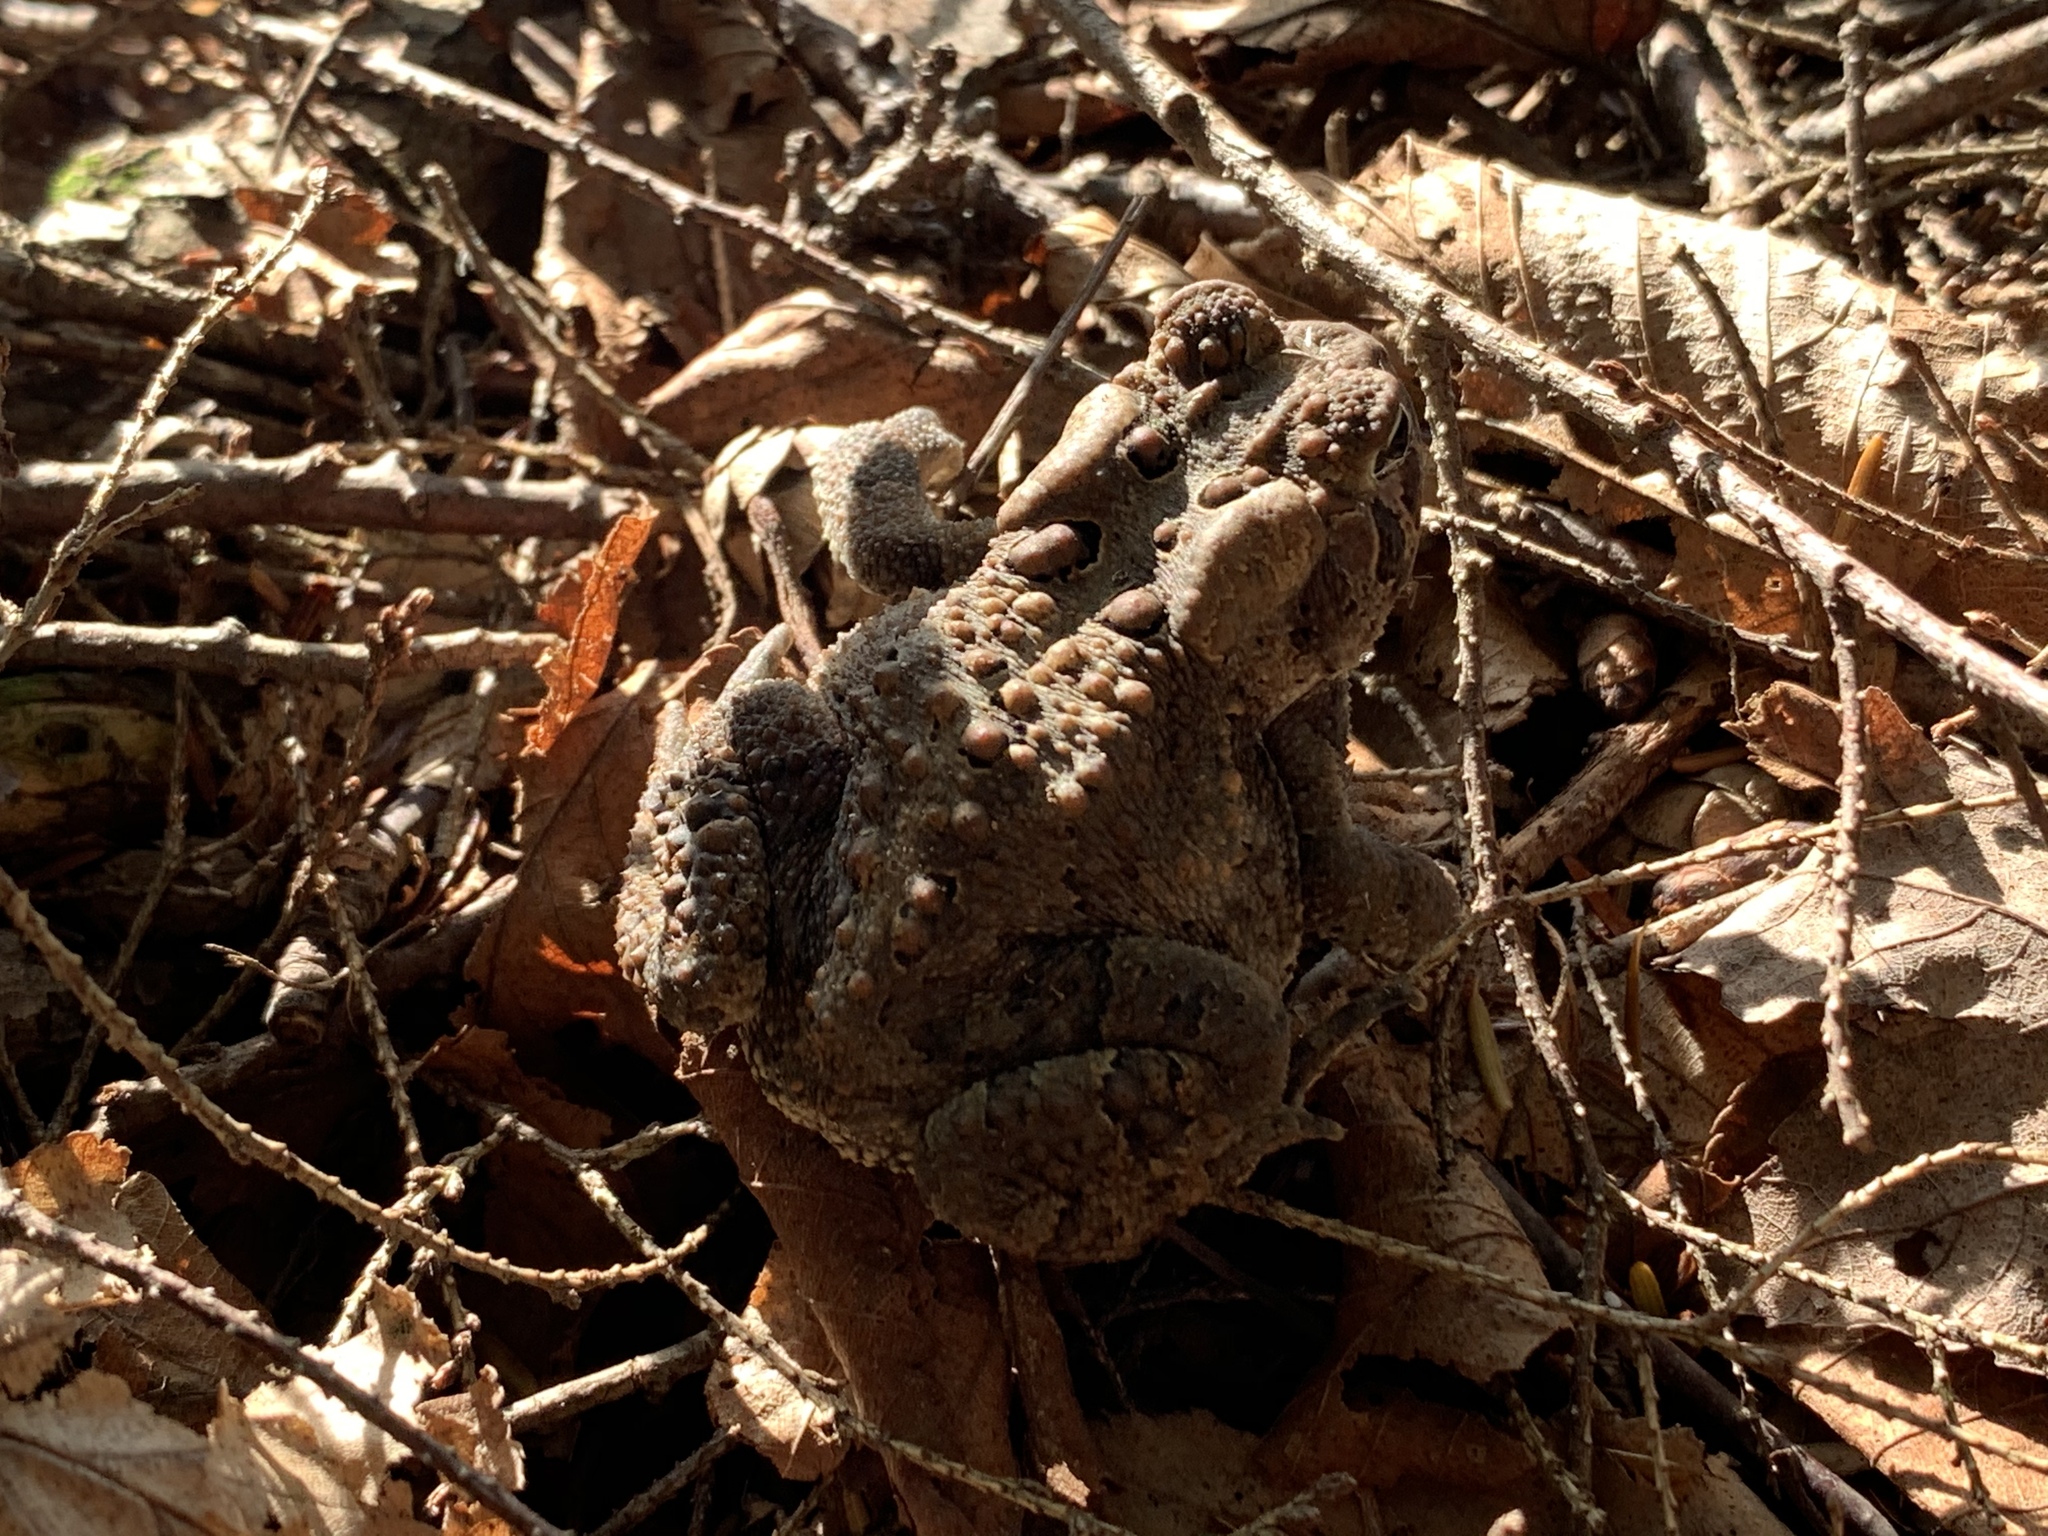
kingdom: Animalia
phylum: Chordata
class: Amphibia
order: Anura
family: Bufonidae
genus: Anaxyrus
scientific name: Anaxyrus americanus
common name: American toad
